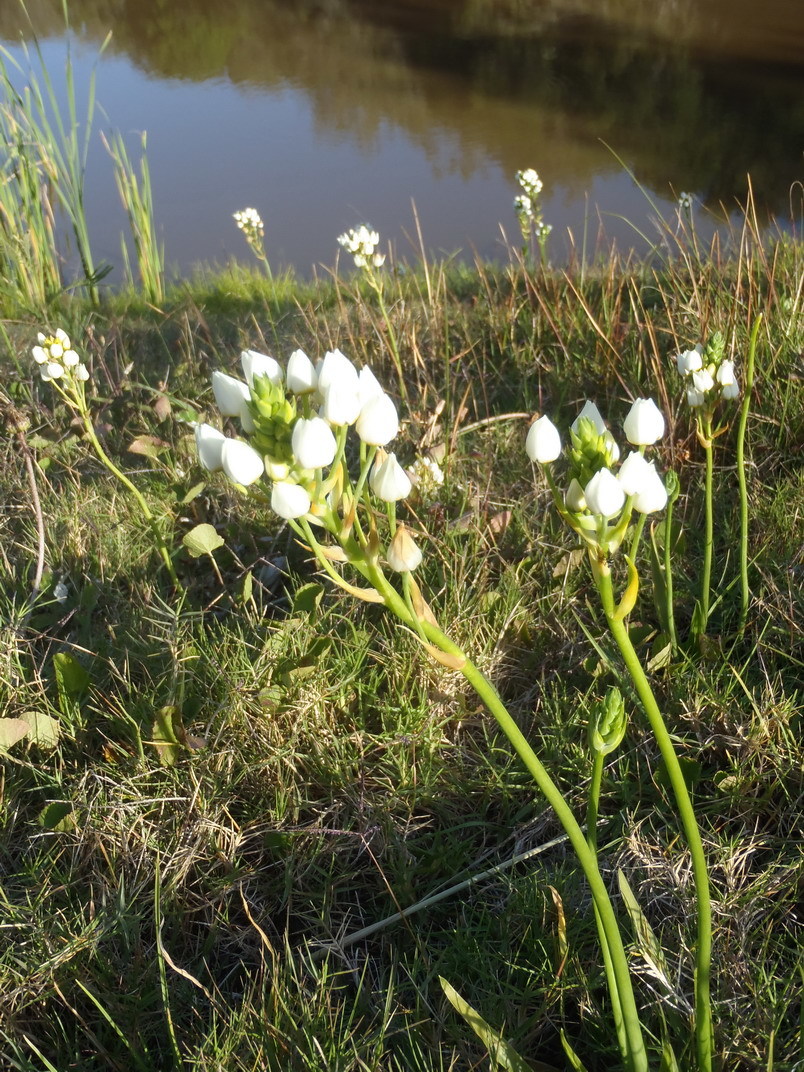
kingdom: Plantae
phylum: Tracheophyta
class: Liliopsida
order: Asparagales
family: Asparagaceae
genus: Ornithogalum
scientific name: Ornithogalum dubium
